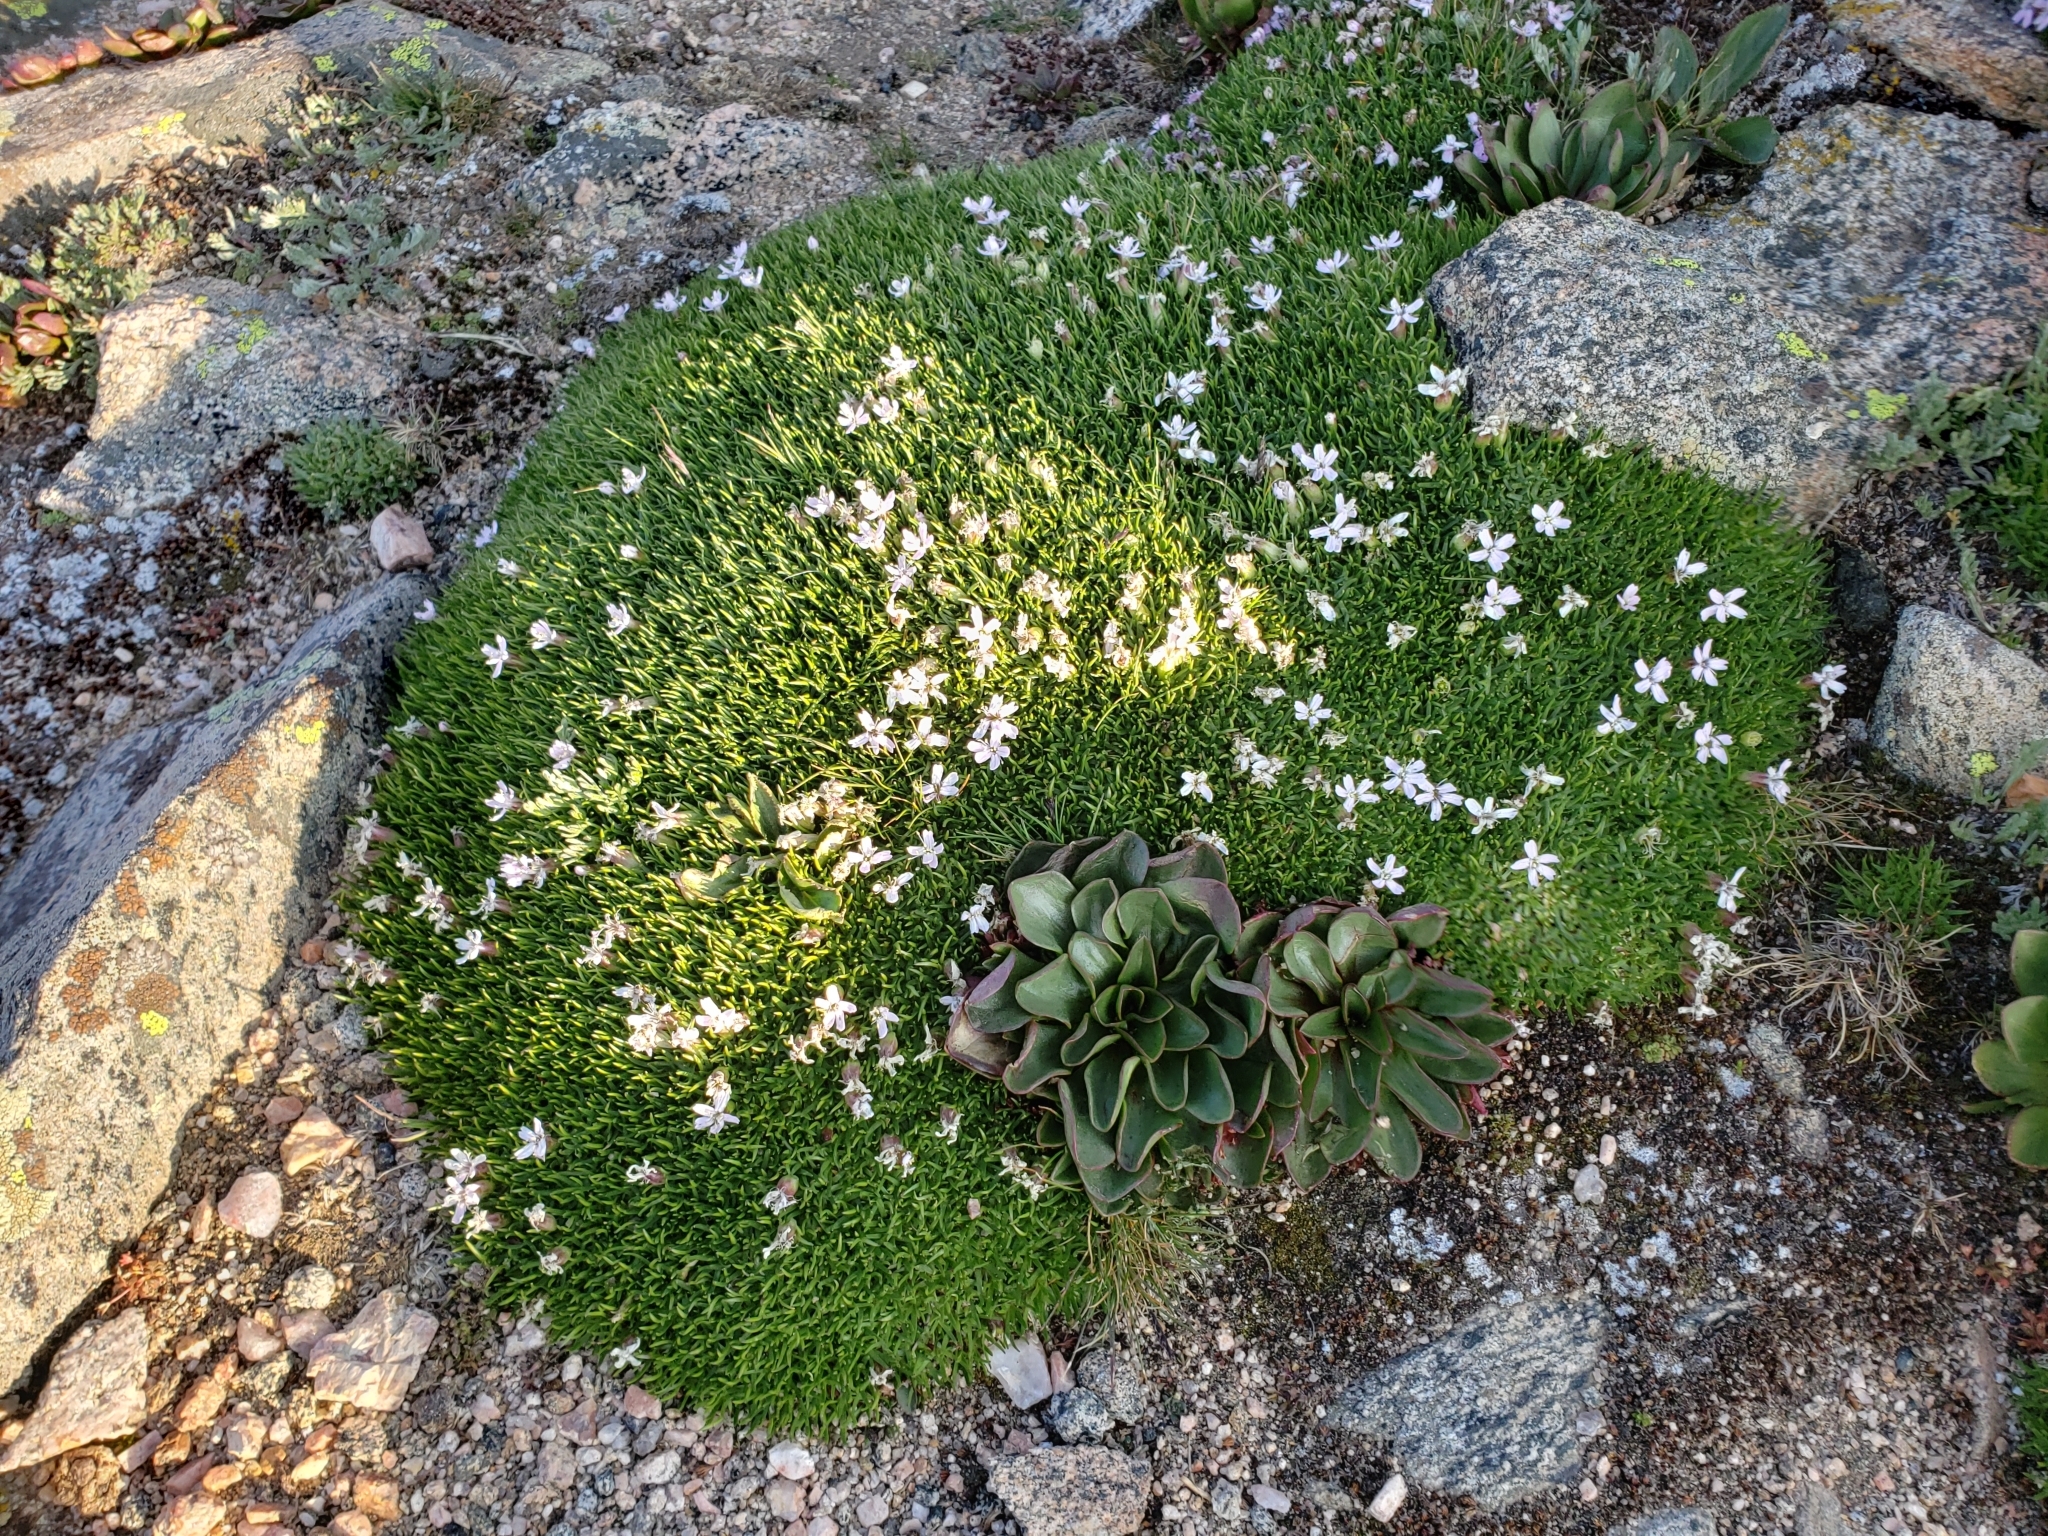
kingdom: Plantae
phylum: Tracheophyta
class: Magnoliopsida
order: Caryophyllales
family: Caryophyllaceae
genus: Silene
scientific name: Silene acaulis
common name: Moss campion
